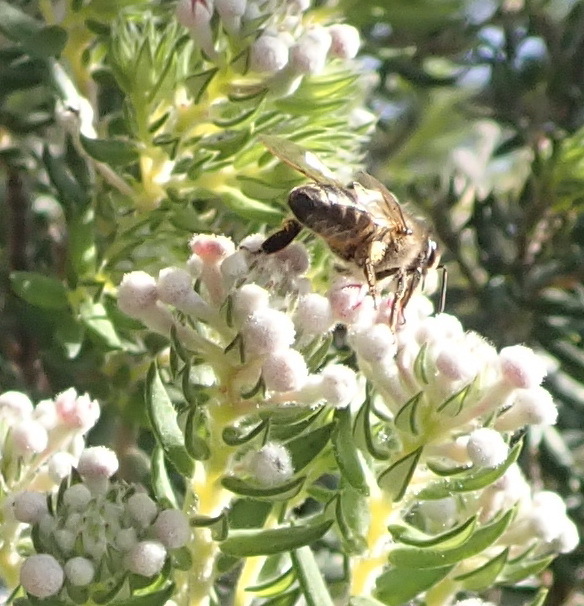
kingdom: Animalia
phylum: Arthropoda
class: Insecta
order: Hymenoptera
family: Apidae
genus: Apis
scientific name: Apis mellifera
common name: Honey bee
